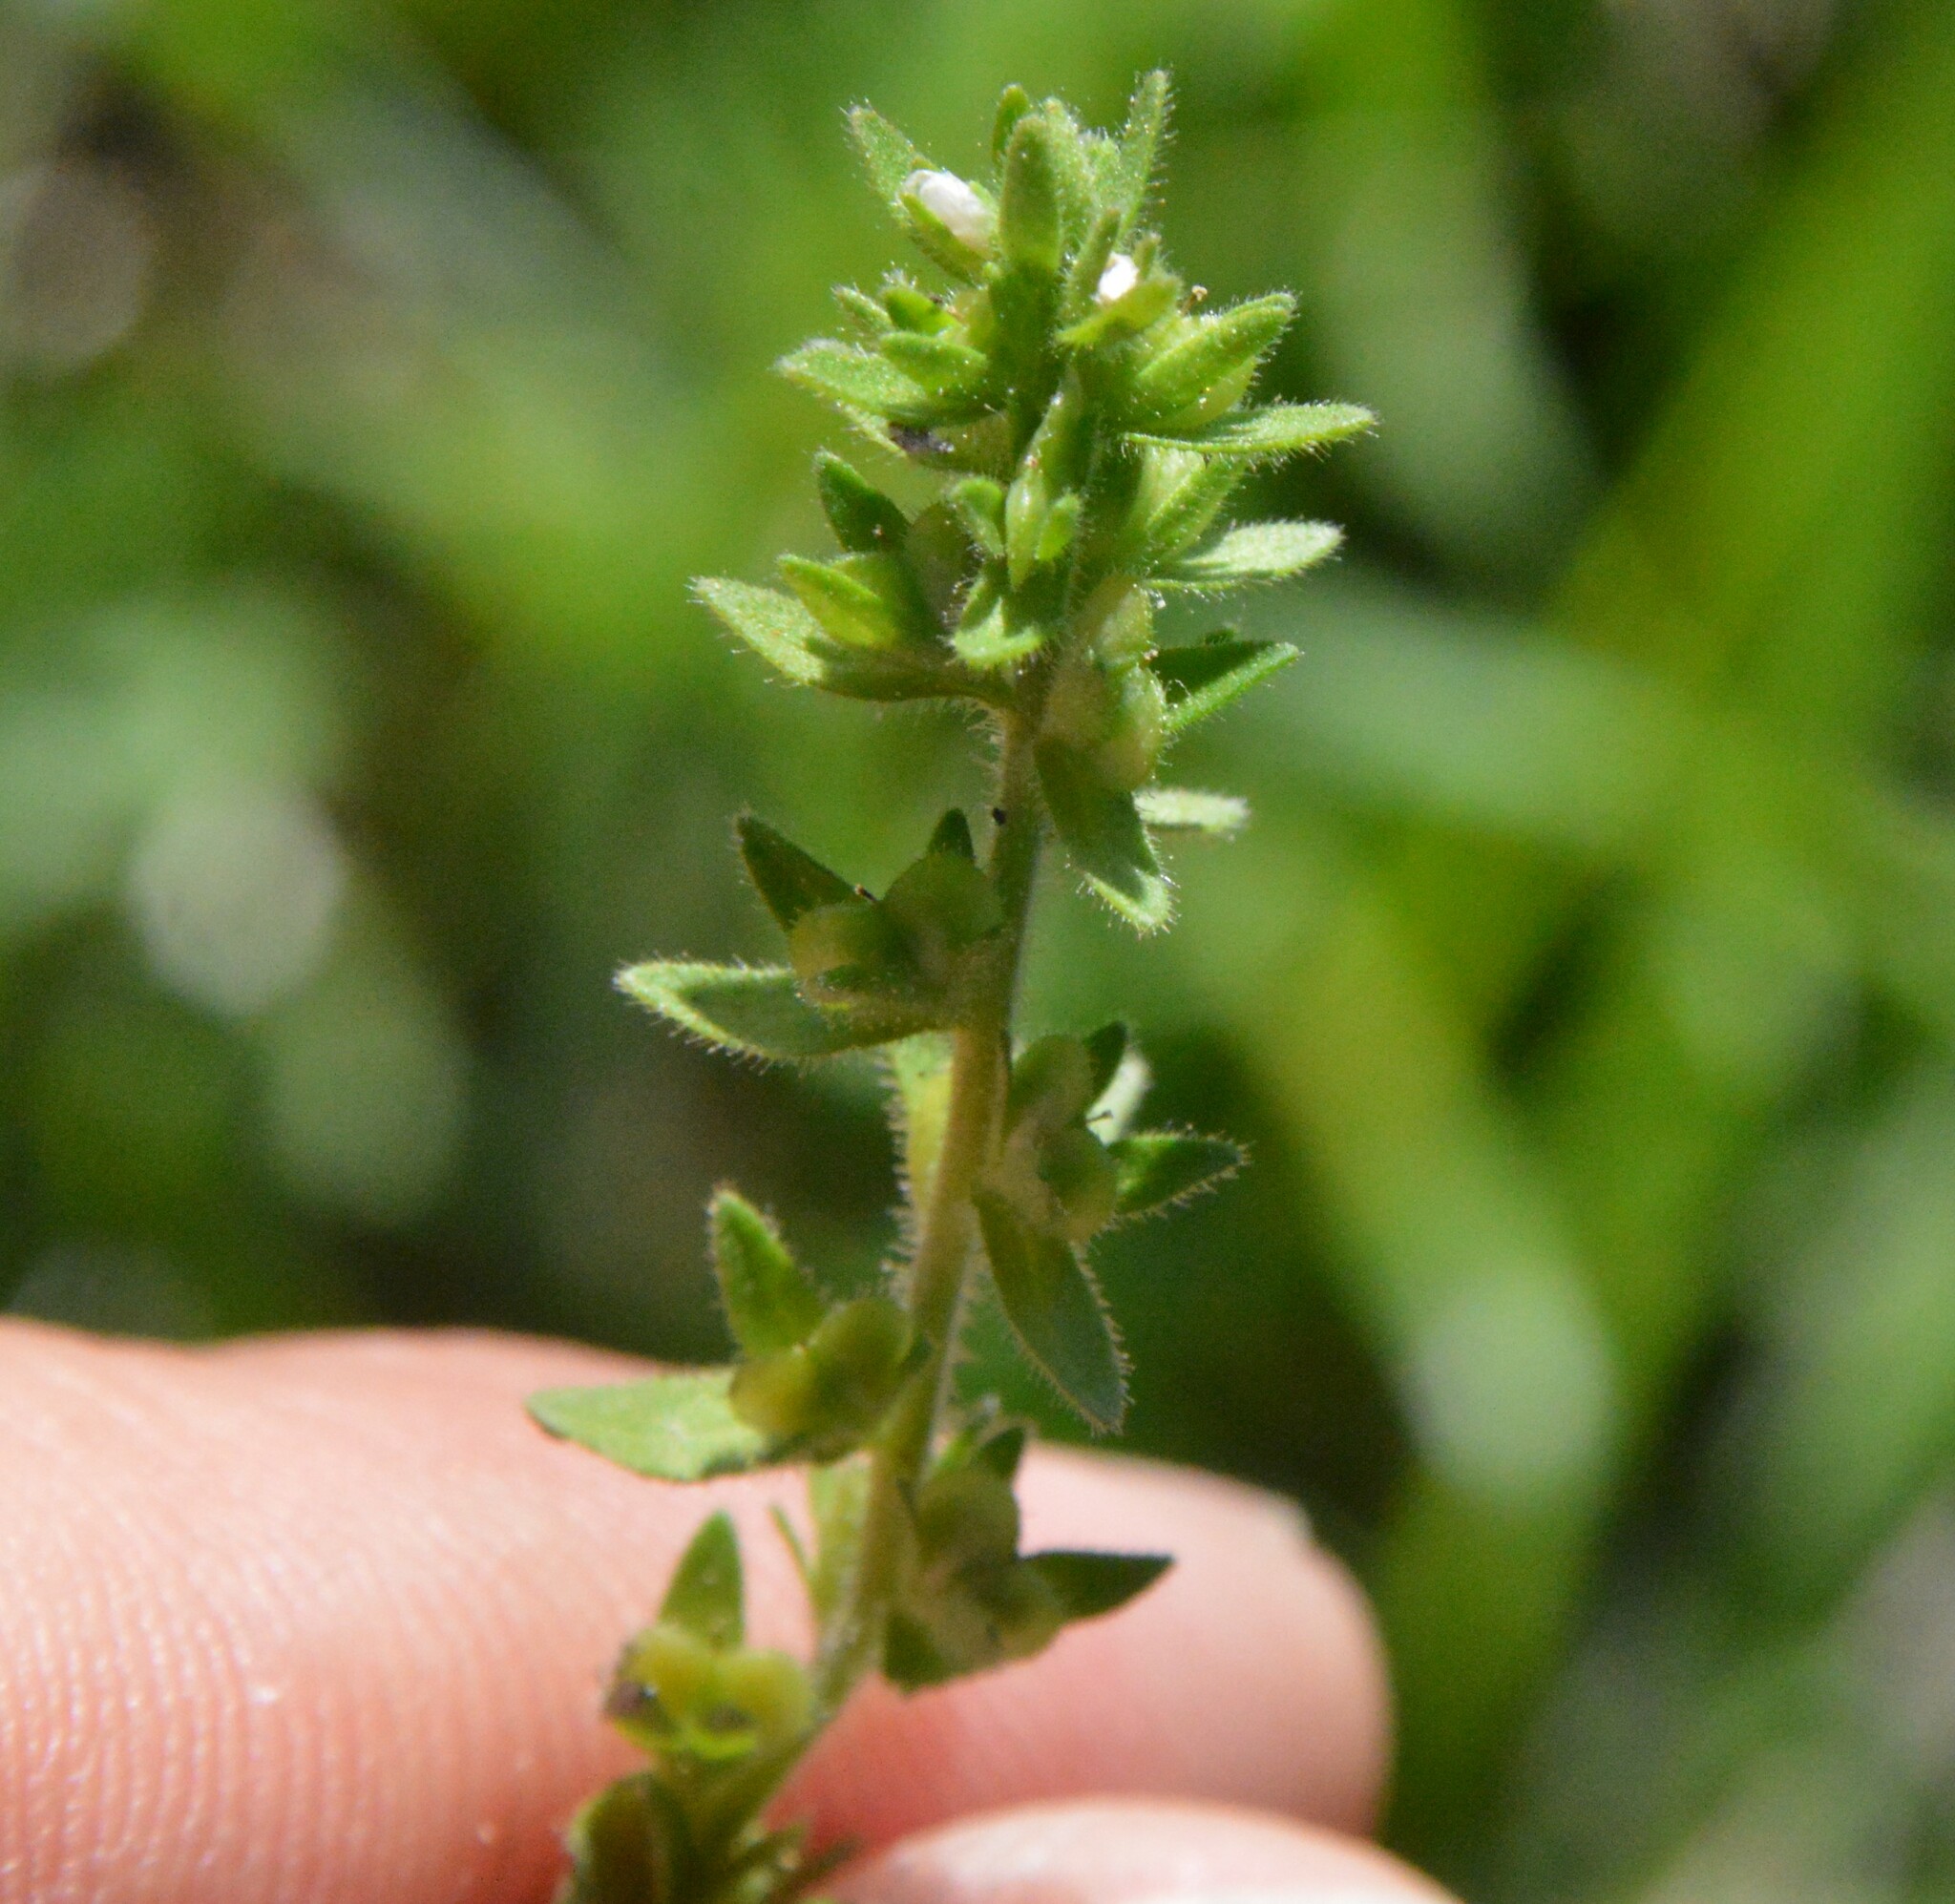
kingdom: Plantae
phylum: Tracheophyta
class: Magnoliopsida
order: Lamiales
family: Plantaginaceae
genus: Veronica
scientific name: Veronica arvensis
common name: Corn speedwell
